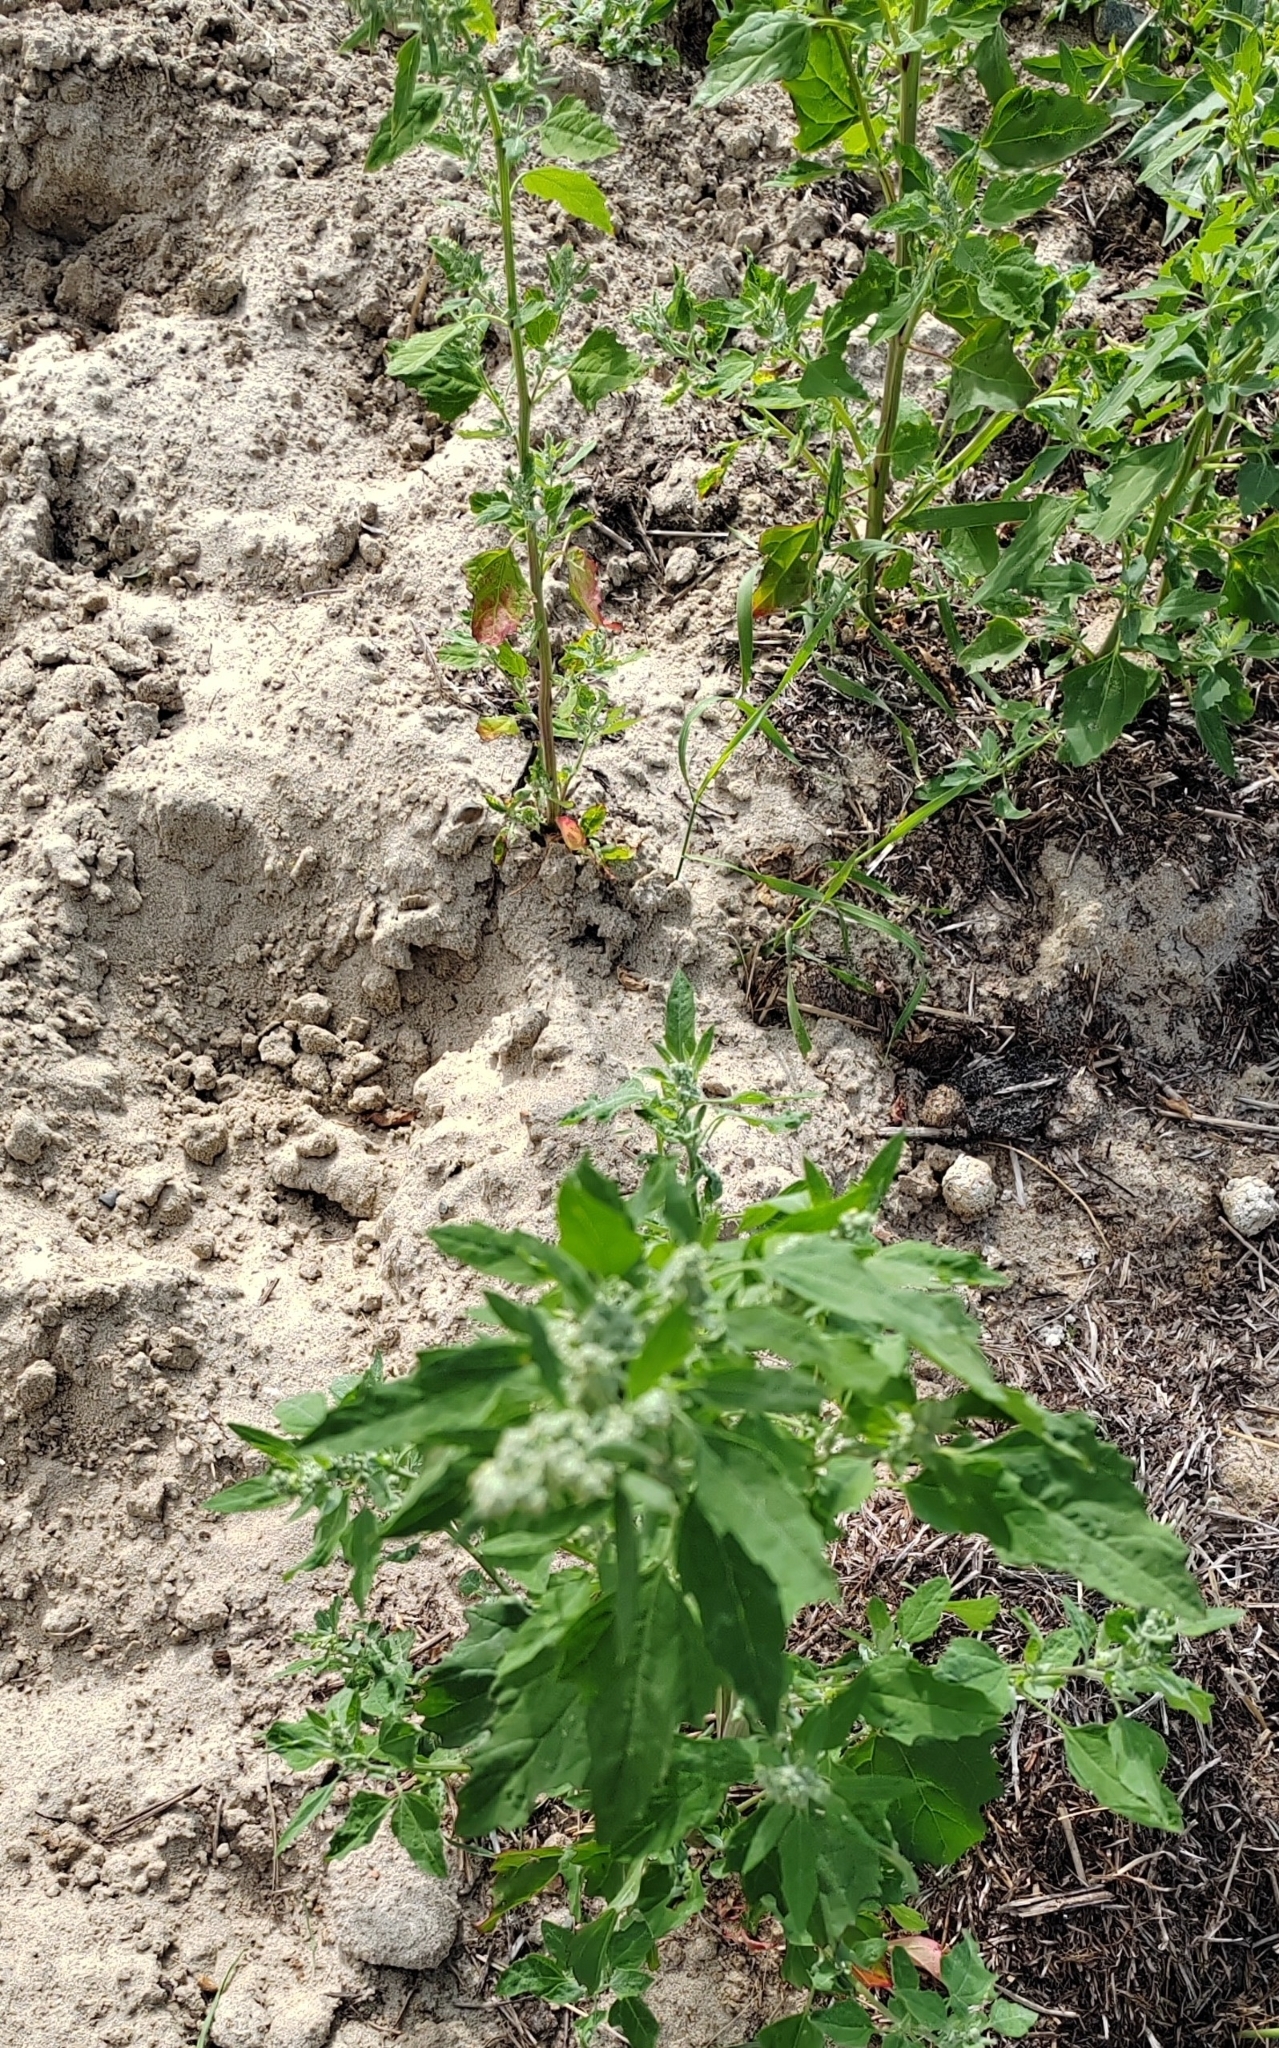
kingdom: Plantae
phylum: Tracheophyta
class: Magnoliopsida
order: Caryophyllales
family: Amaranthaceae
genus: Chenopodium
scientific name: Chenopodium album
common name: Fat-hen
